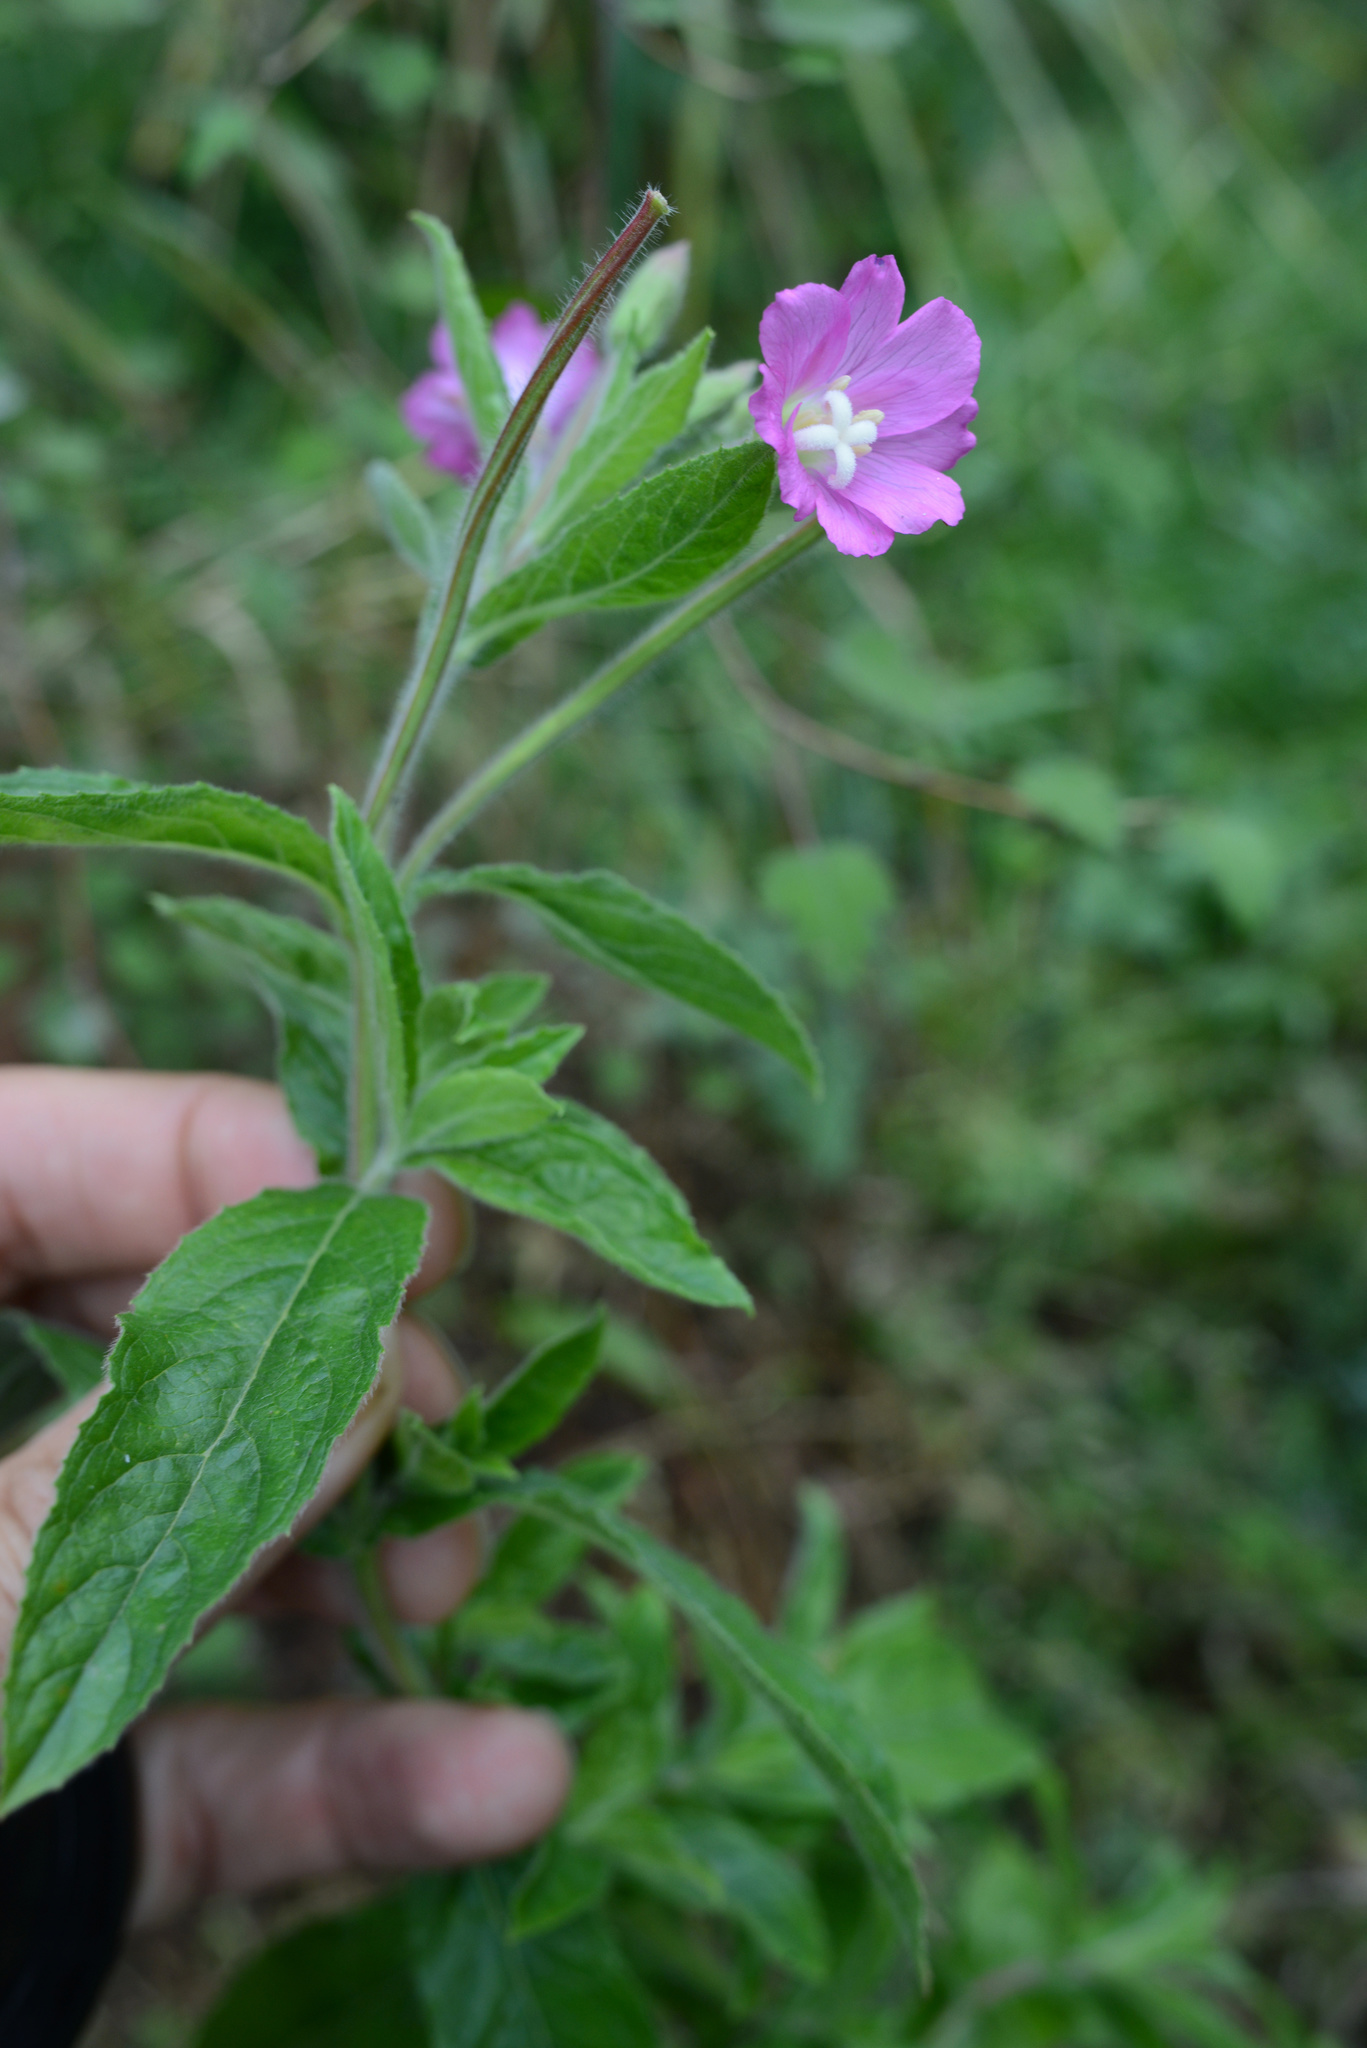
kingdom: Plantae
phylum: Tracheophyta
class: Magnoliopsida
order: Myrtales
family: Onagraceae
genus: Epilobium
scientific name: Epilobium hirsutum
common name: Great willowherb
